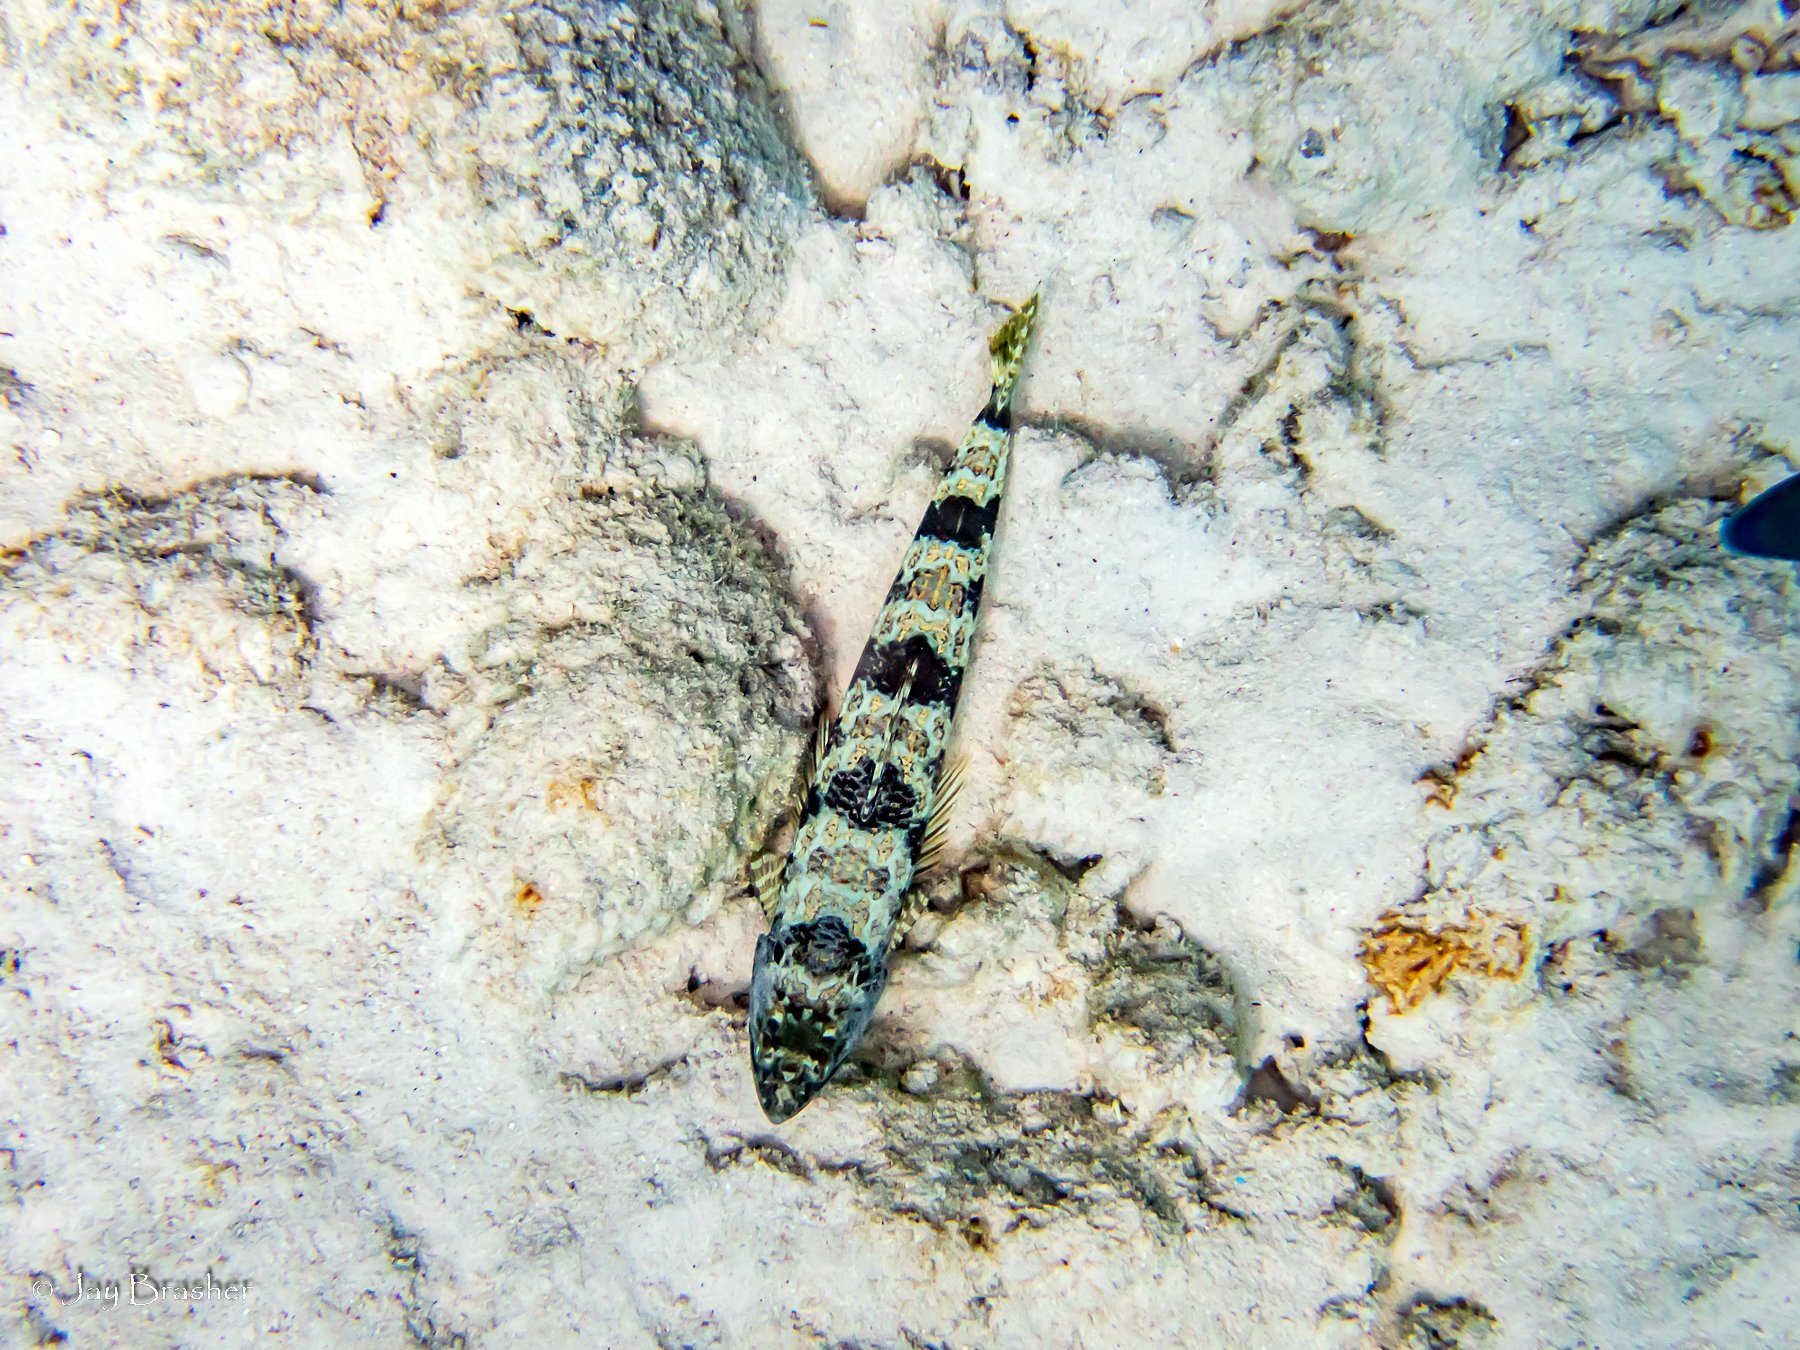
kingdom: Animalia
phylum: Chordata
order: Aulopiformes
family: Synodontidae
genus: Synodus
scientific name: Synodus intermedius
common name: Sand diver
